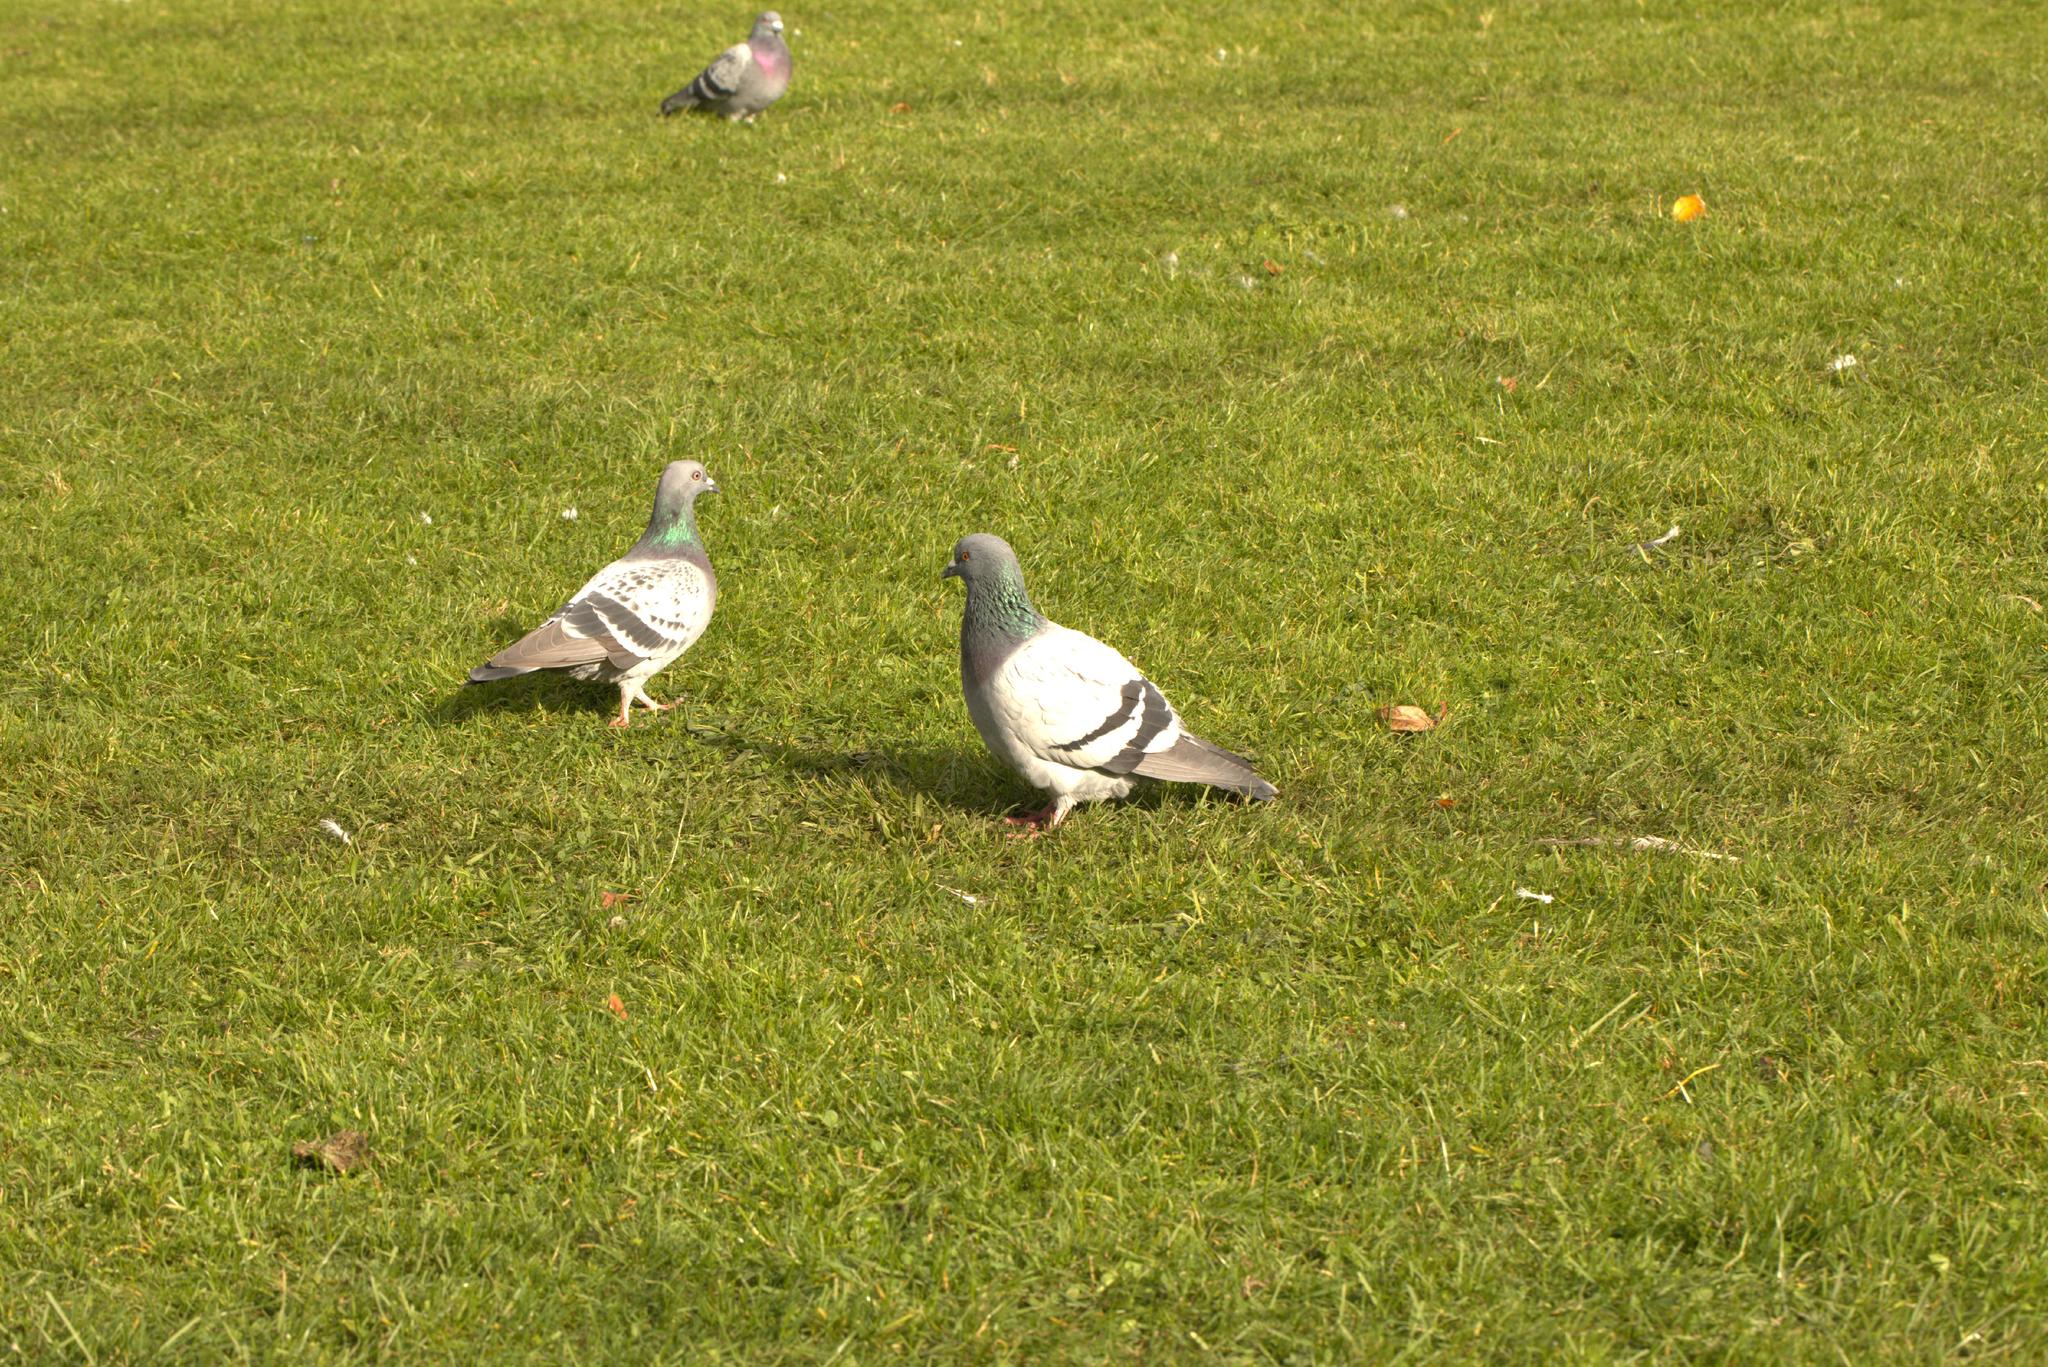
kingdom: Animalia
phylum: Chordata
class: Aves
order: Columbiformes
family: Columbidae
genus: Columba
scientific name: Columba livia
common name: Rock pigeon
